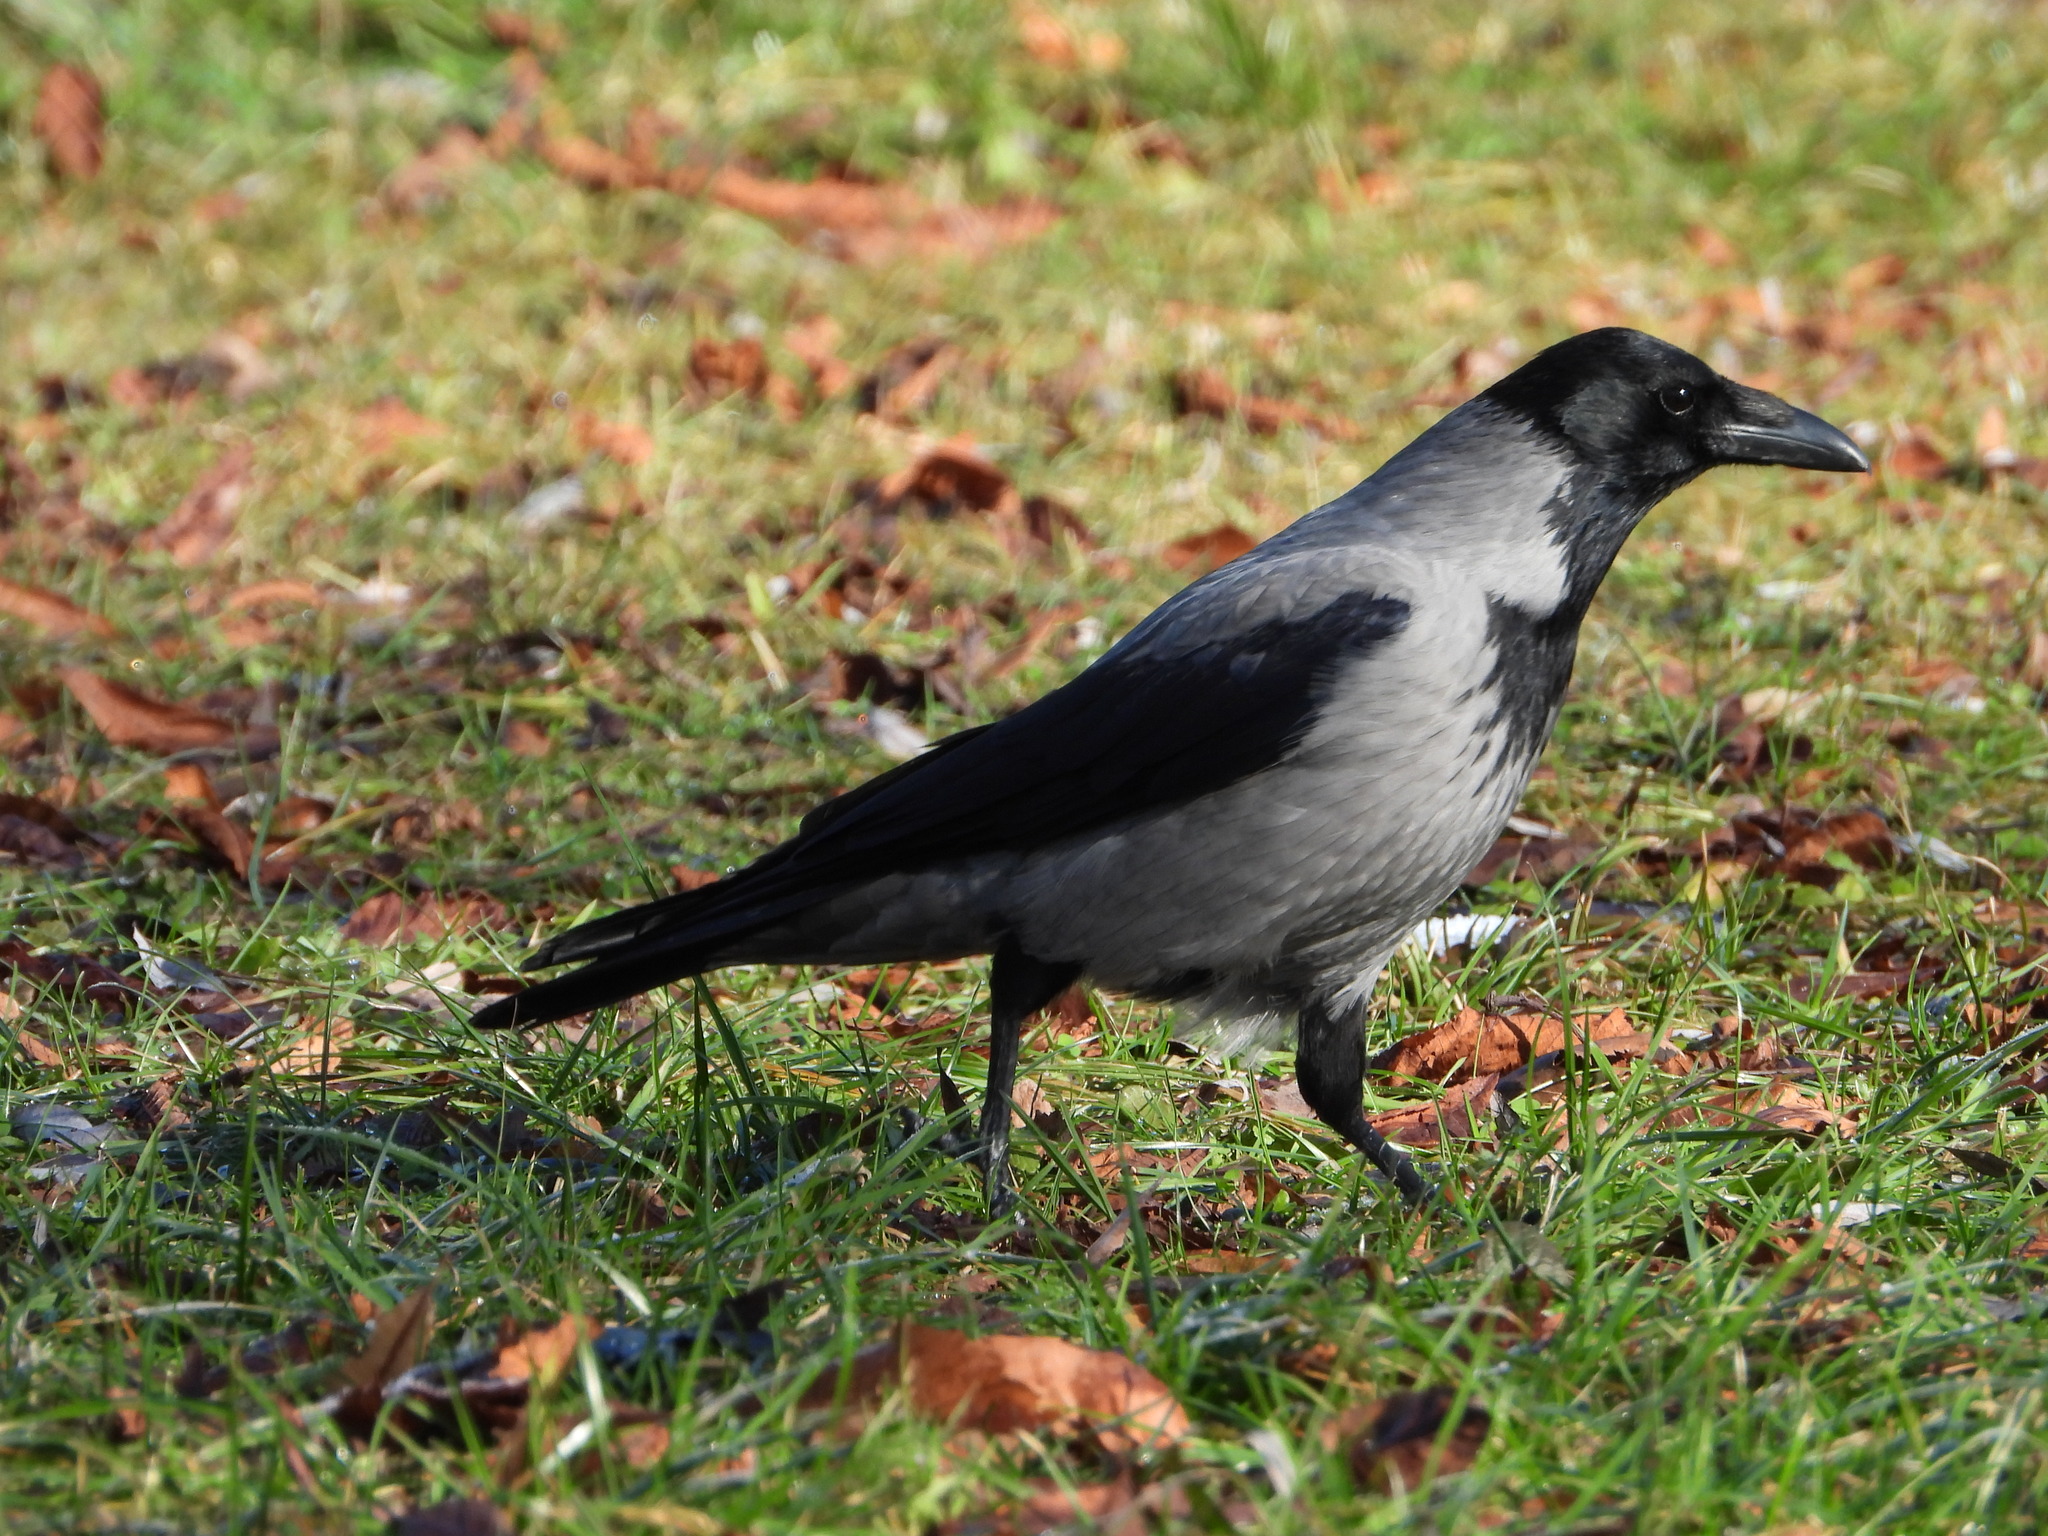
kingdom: Animalia
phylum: Chordata
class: Aves
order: Passeriformes
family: Corvidae
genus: Corvus
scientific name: Corvus cornix
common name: Hooded crow
